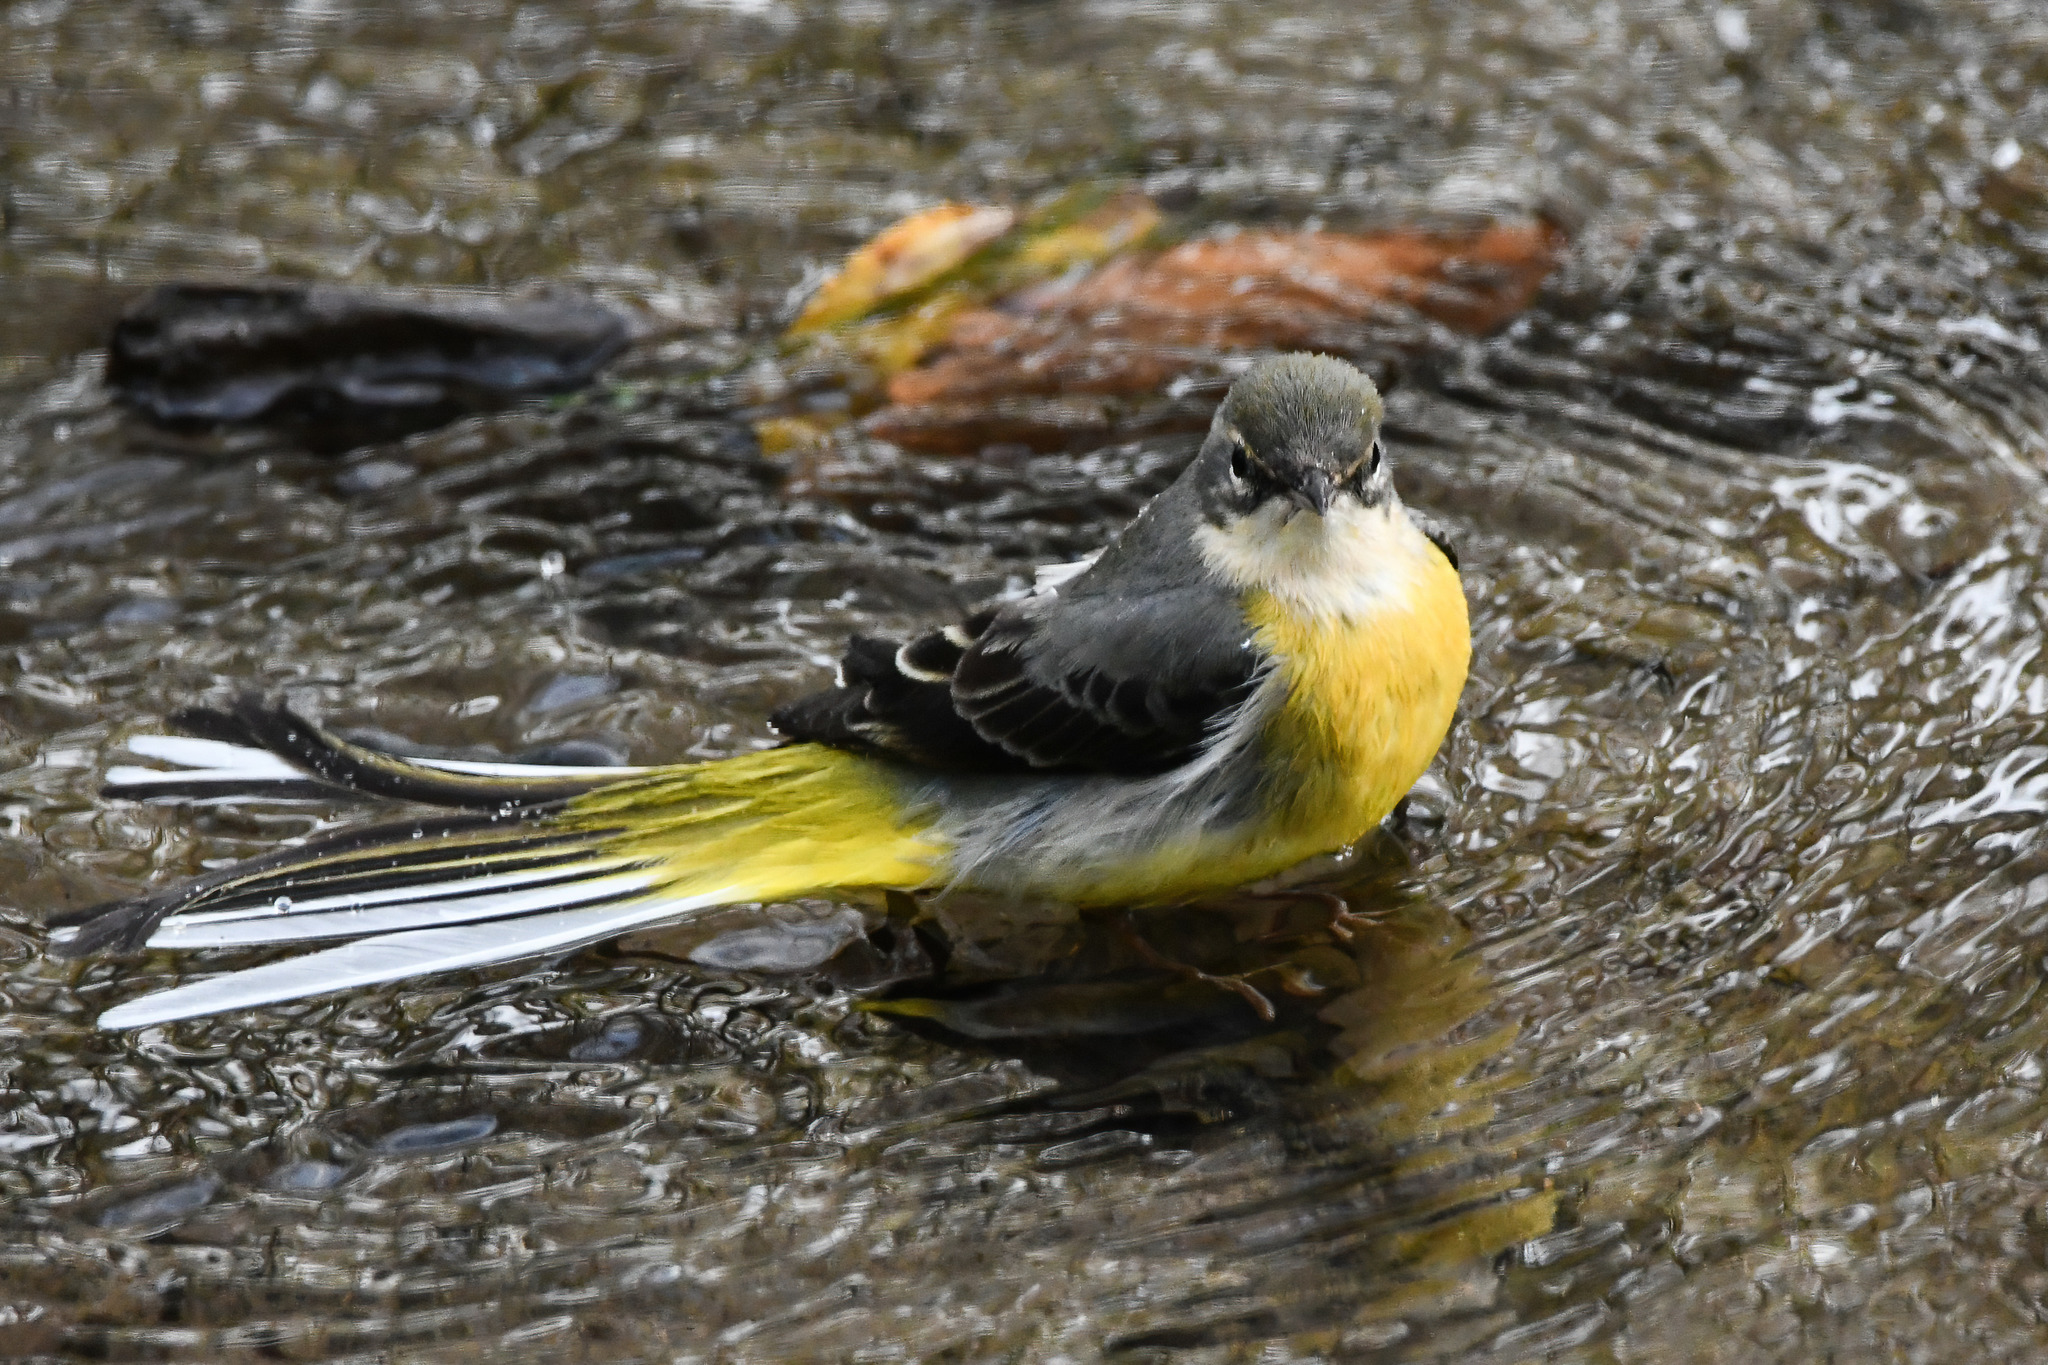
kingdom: Animalia
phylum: Chordata
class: Aves
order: Passeriformes
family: Motacillidae
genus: Motacilla
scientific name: Motacilla cinerea
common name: Grey wagtail
